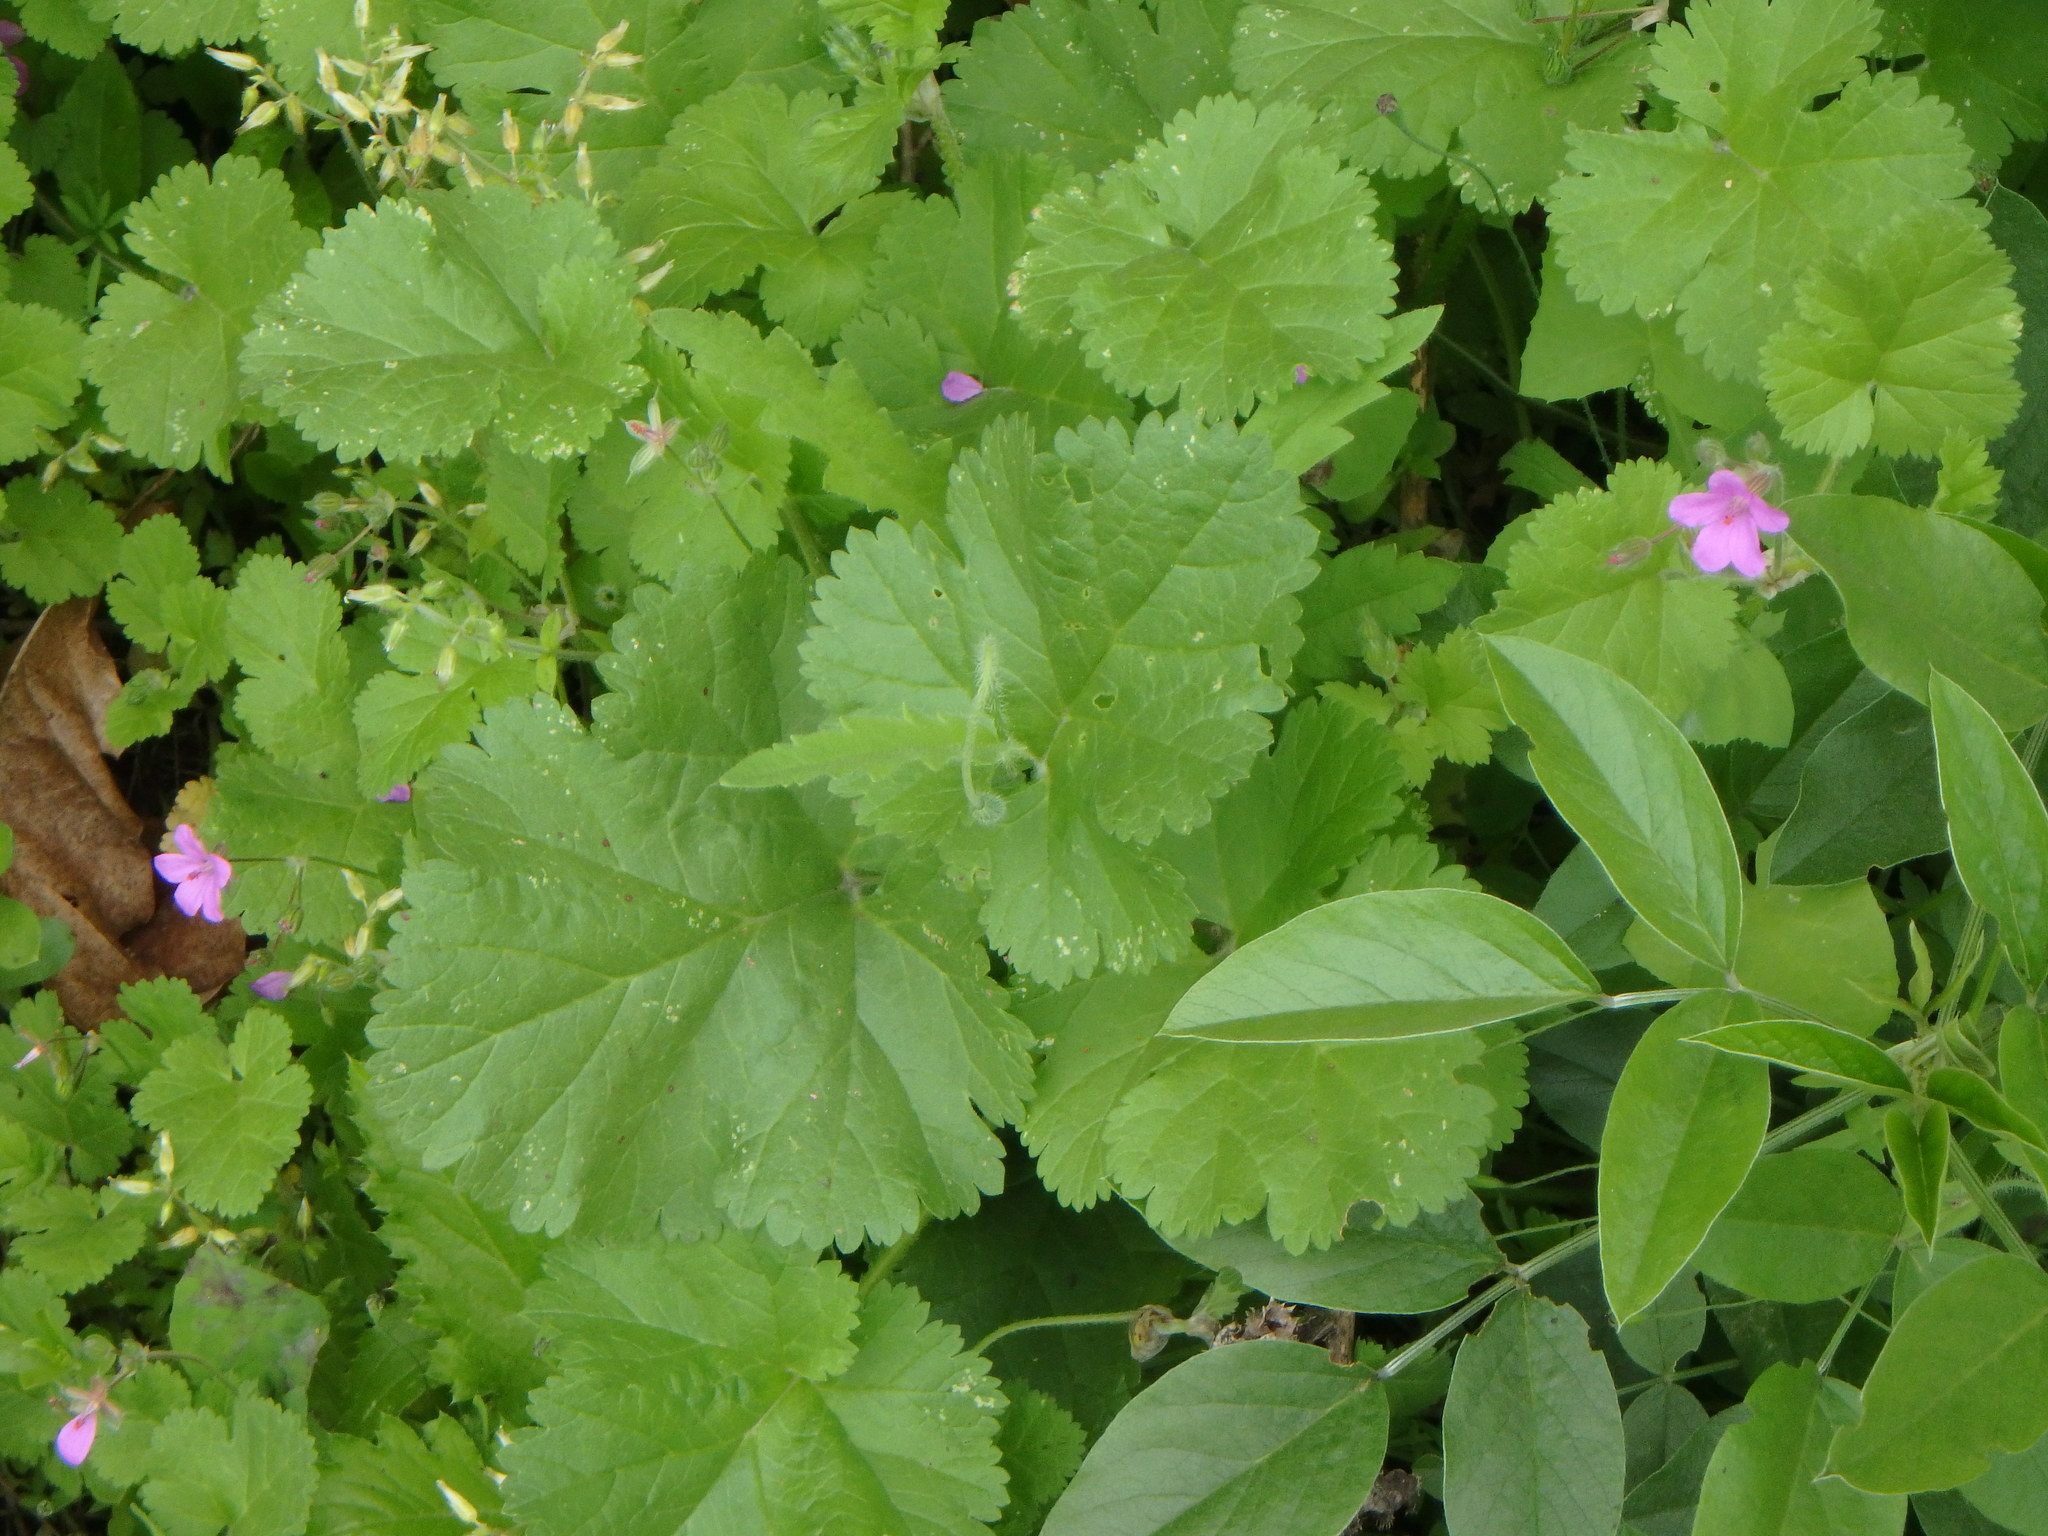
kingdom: Plantae
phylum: Tracheophyta
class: Magnoliopsida
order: Geraniales
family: Geraniaceae
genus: Erodium
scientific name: Erodium malacoides
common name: Soft stork's-bill
